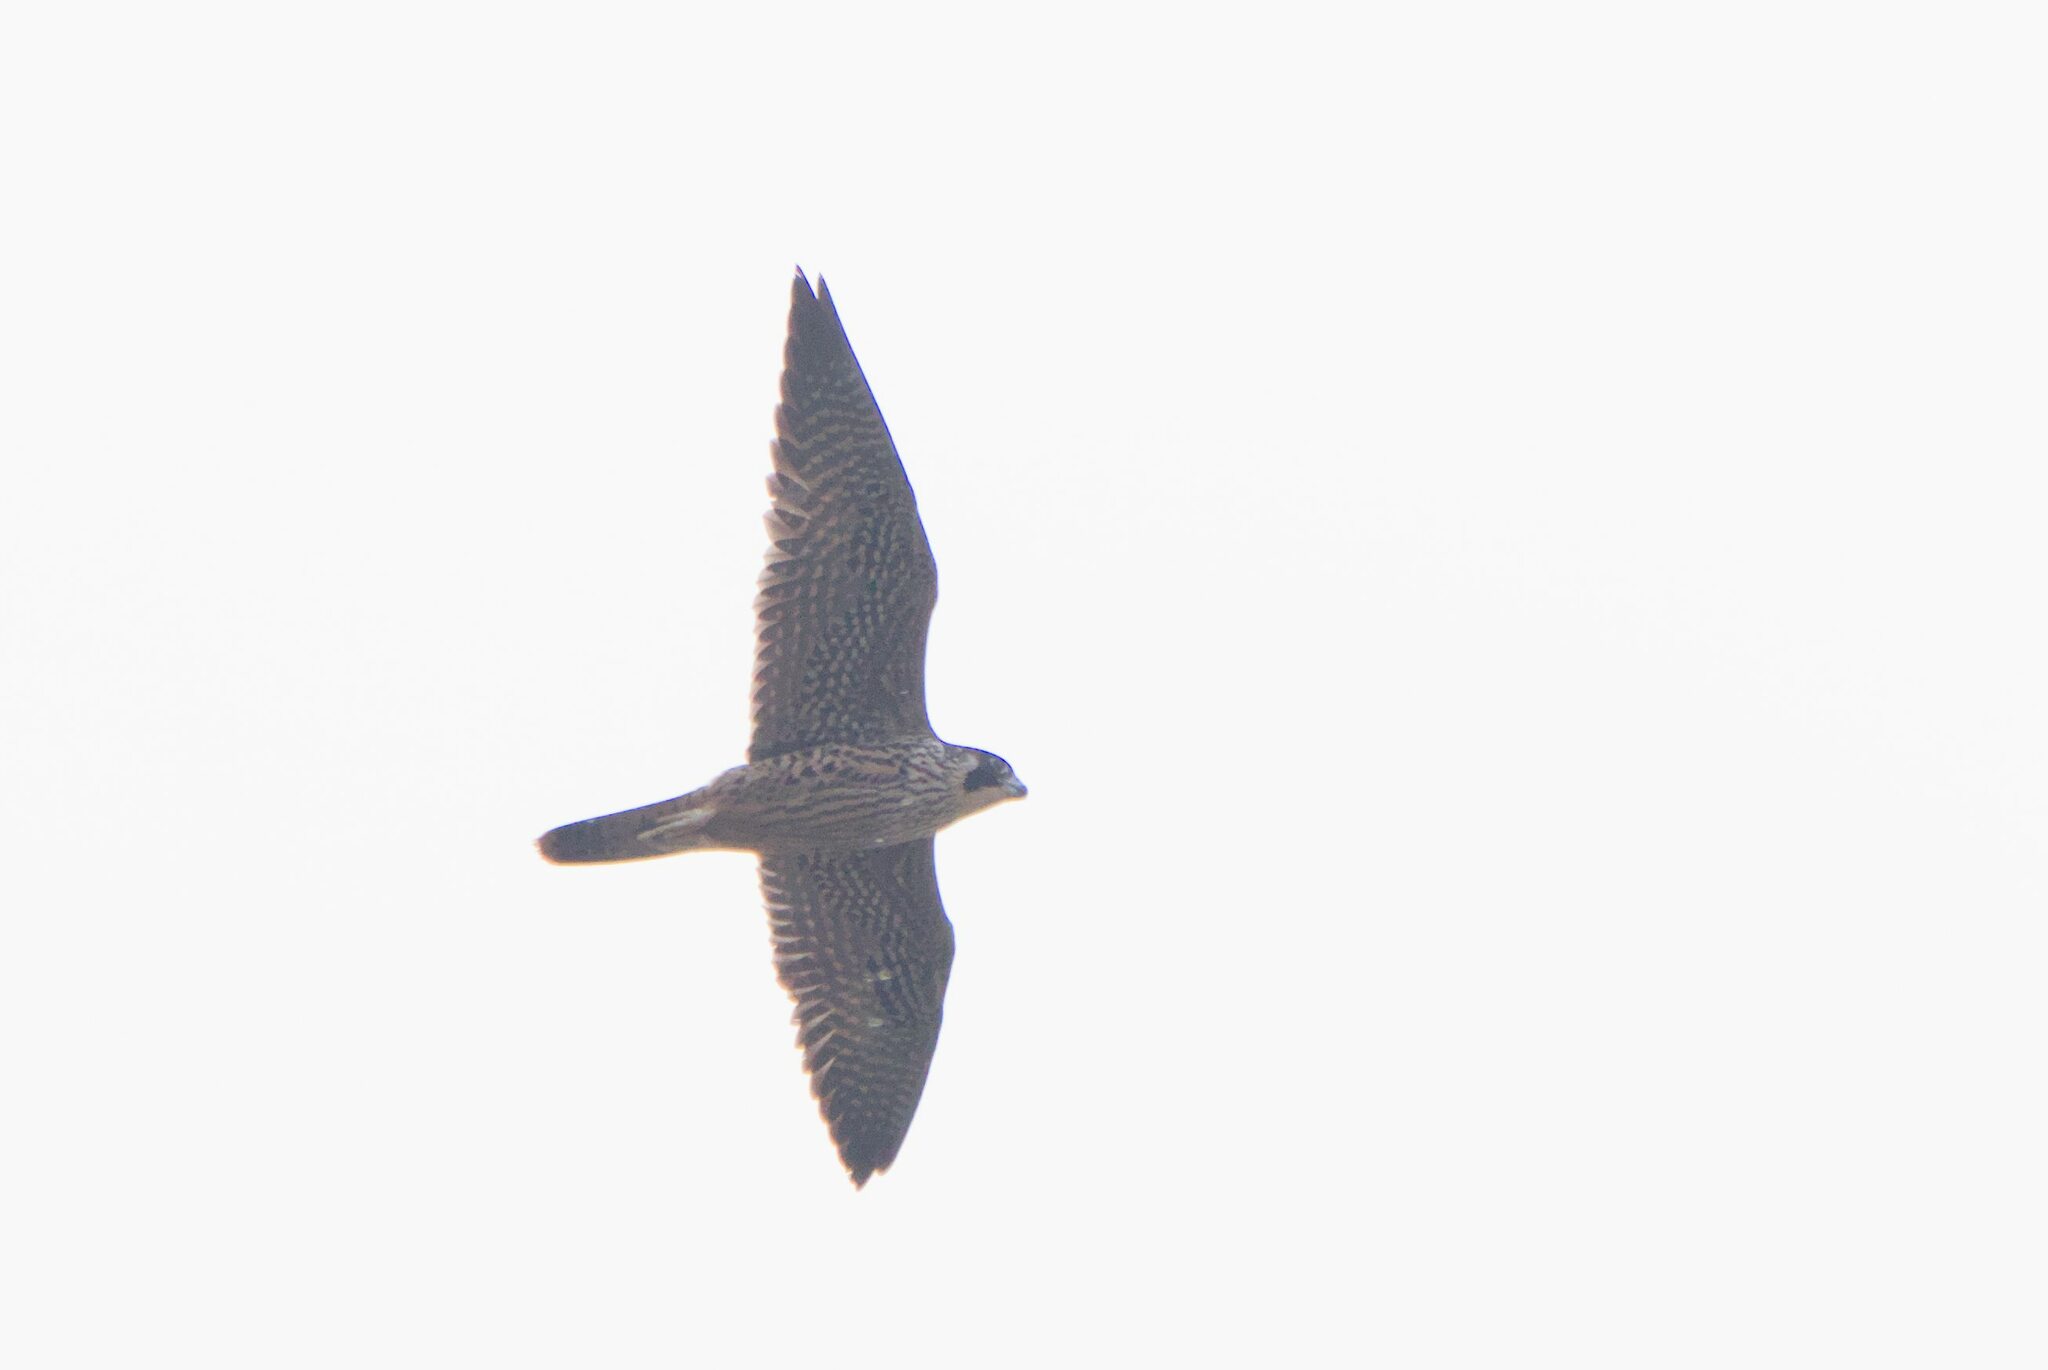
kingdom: Animalia
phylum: Chordata
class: Aves
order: Falconiformes
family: Falconidae
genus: Falco
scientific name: Falco peregrinus
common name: Peregrine falcon
